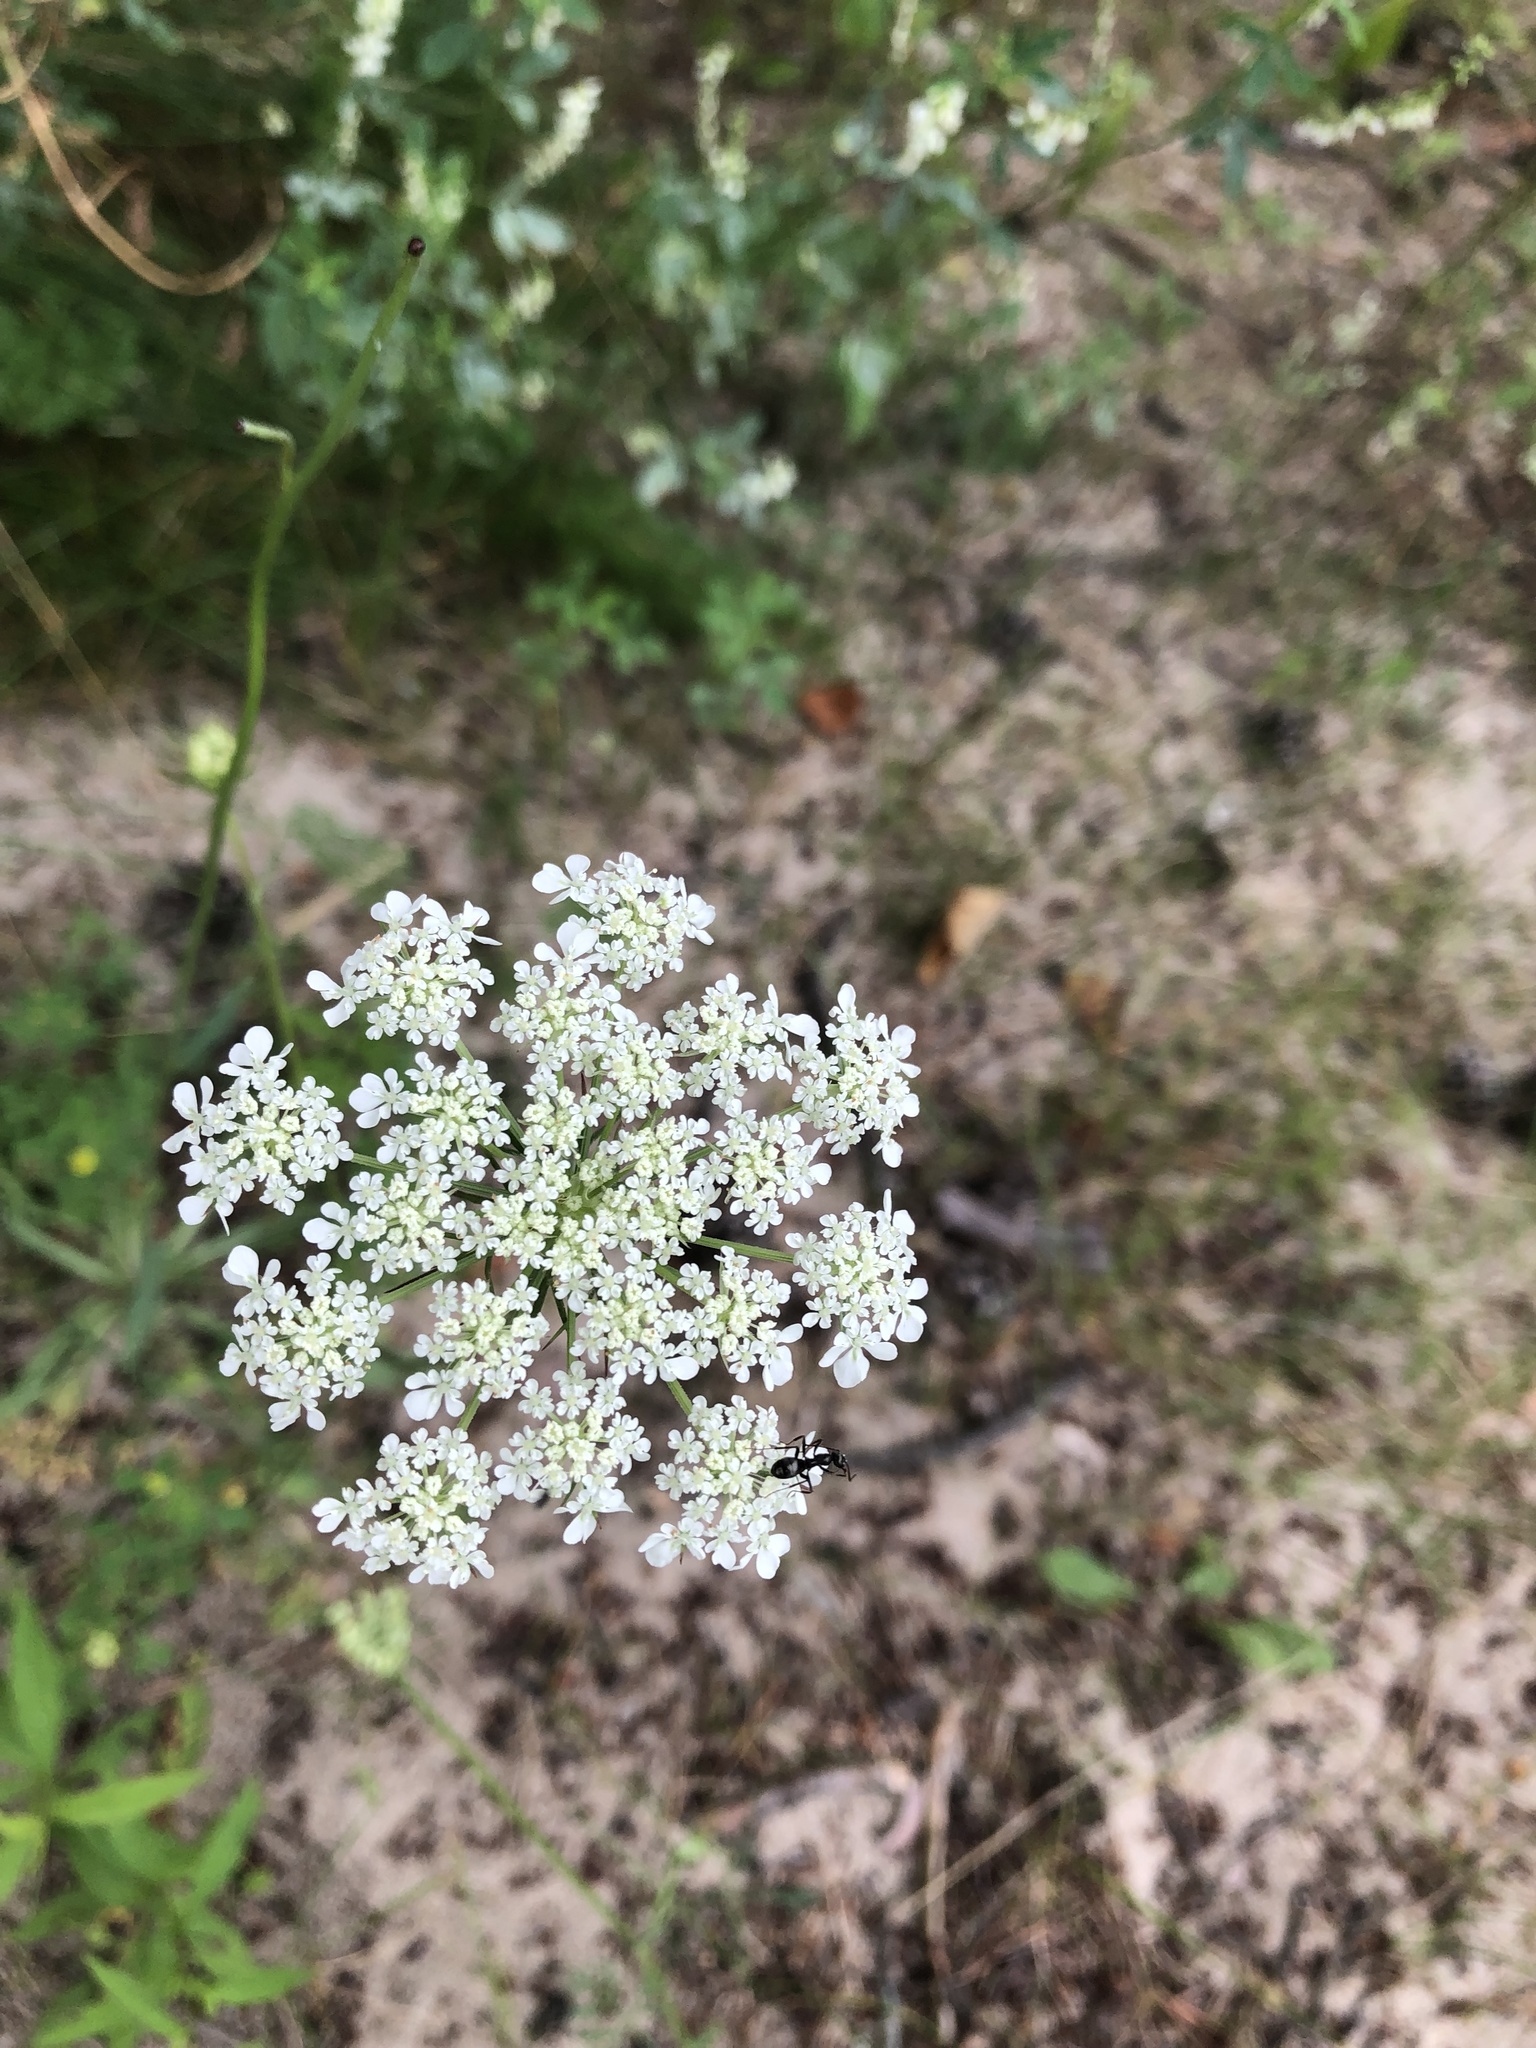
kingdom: Plantae
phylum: Tracheophyta
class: Magnoliopsida
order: Apiales
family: Apiaceae
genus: Daucus
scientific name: Daucus carota
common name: Wild carrot
